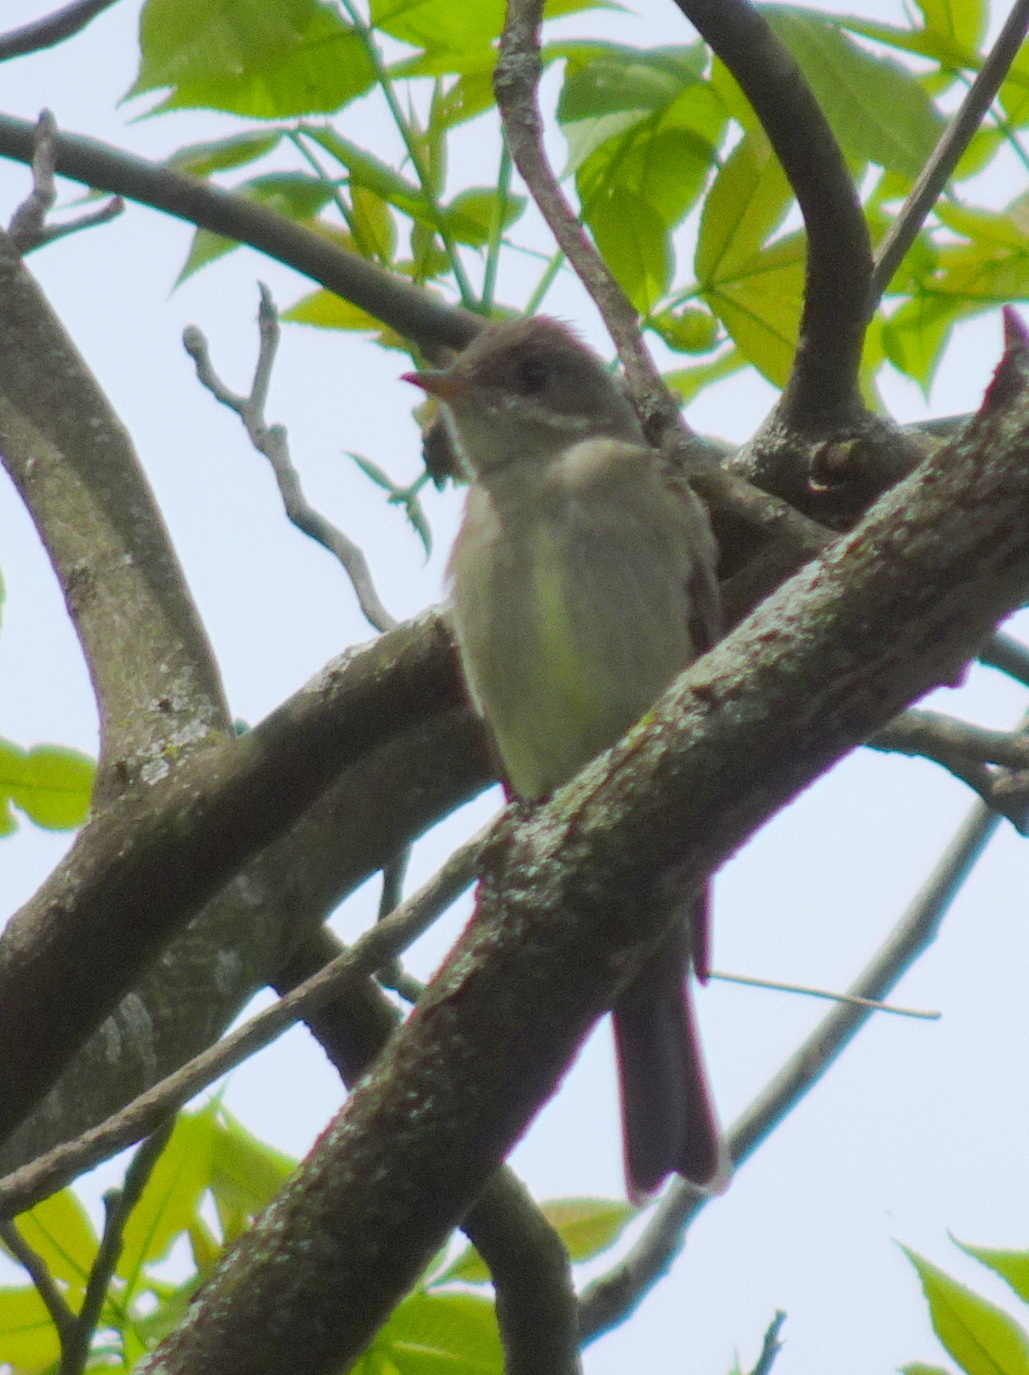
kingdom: Animalia
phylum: Chordata
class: Aves
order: Passeriformes
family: Tyrannidae
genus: Contopus
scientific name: Contopus virens
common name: Eastern wood-pewee
